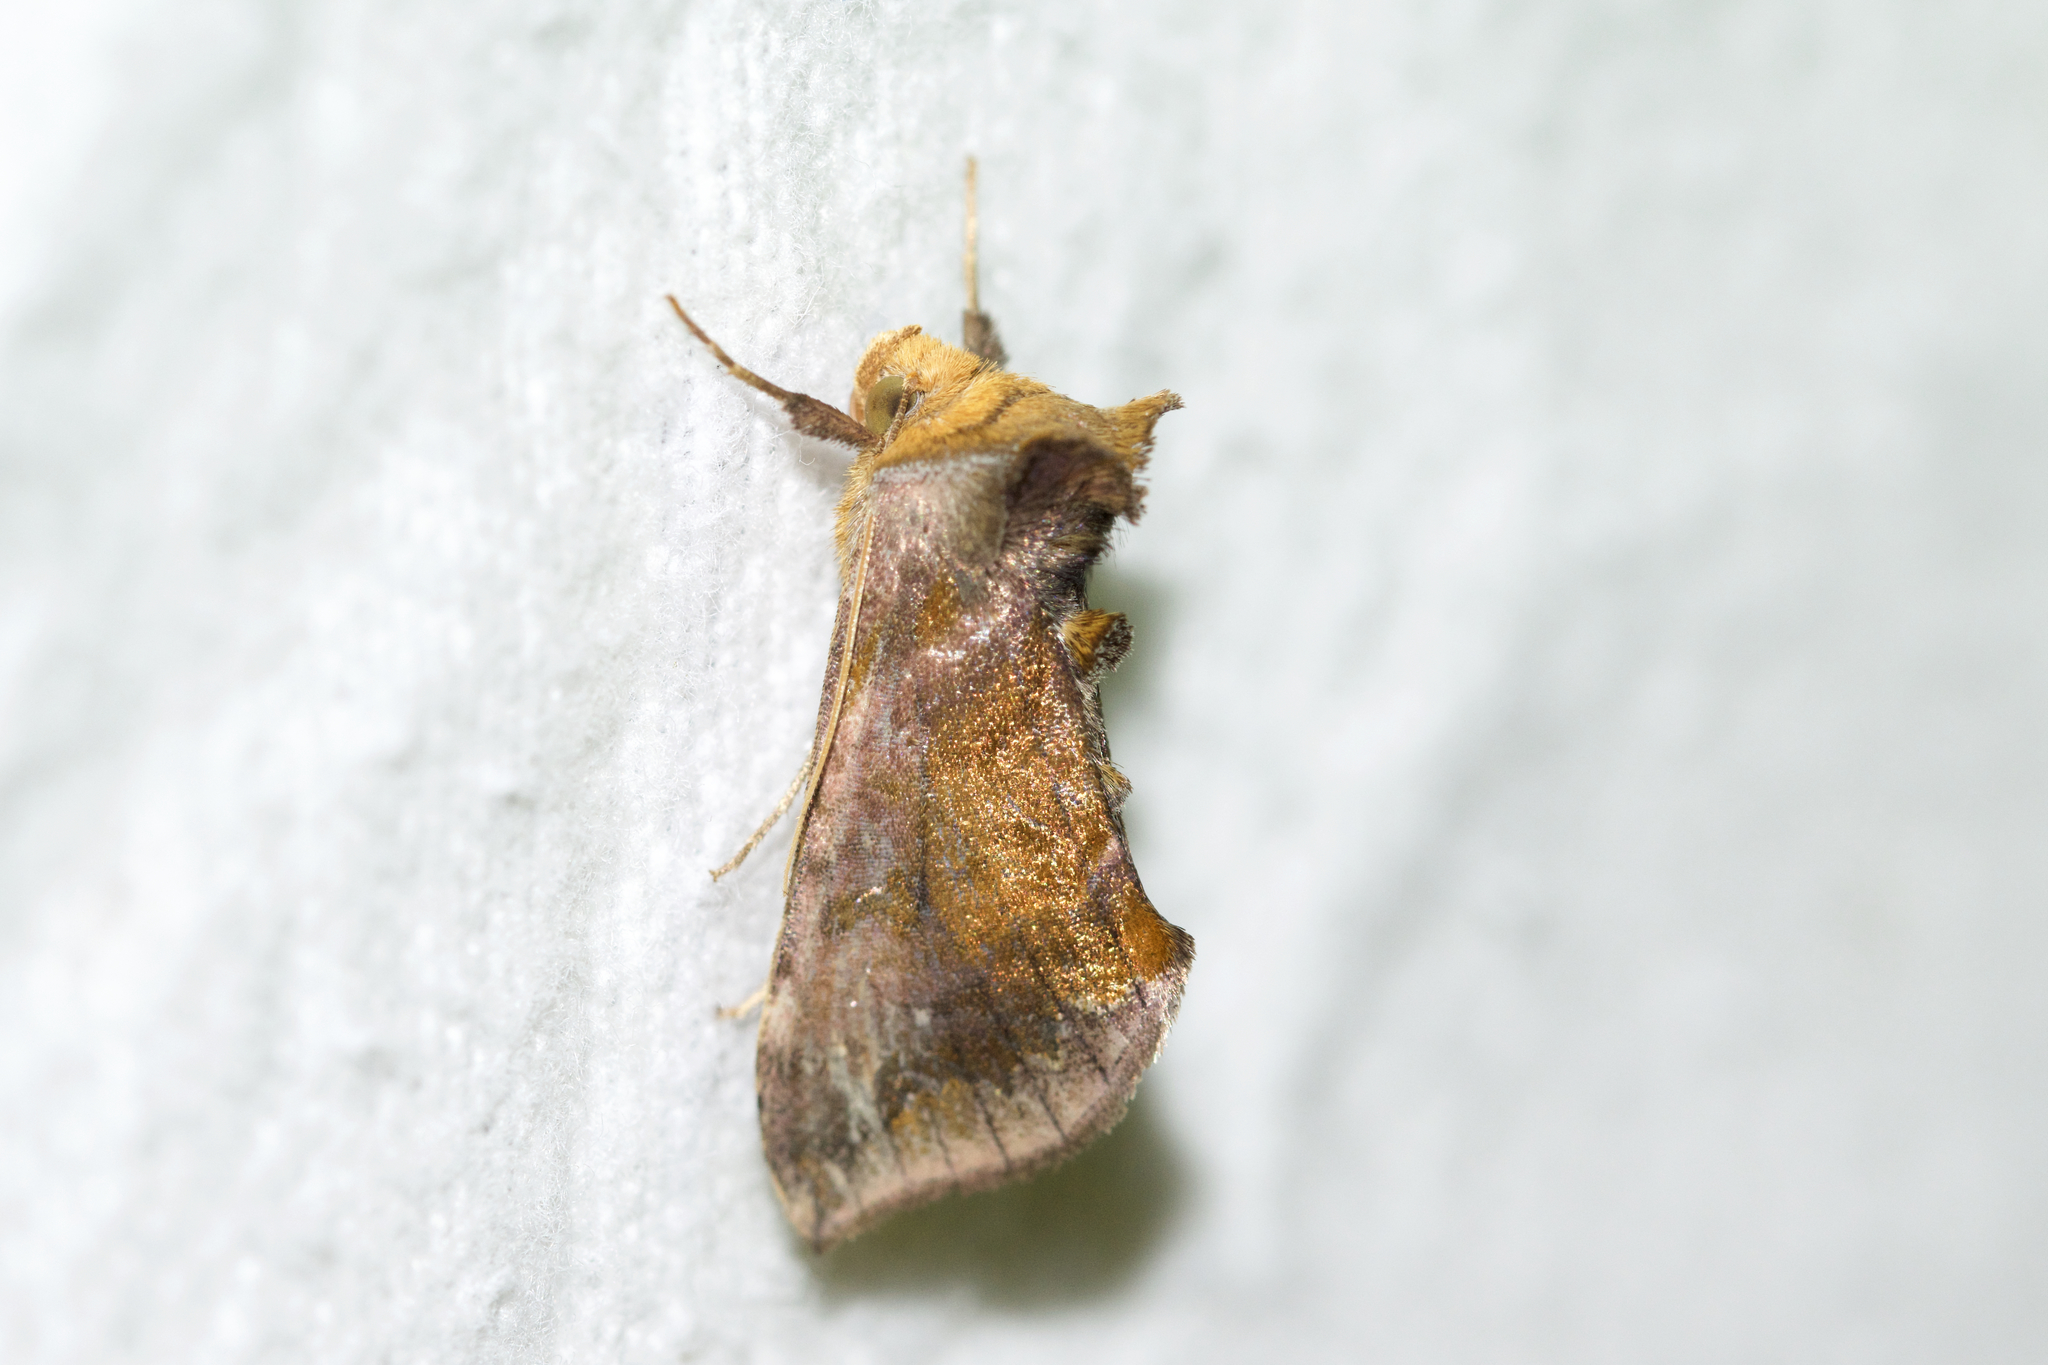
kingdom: Animalia
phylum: Arthropoda
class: Insecta
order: Lepidoptera
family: Noctuidae
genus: Allagrapha
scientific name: Allagrapha aerea
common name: Unspotted looper moth
